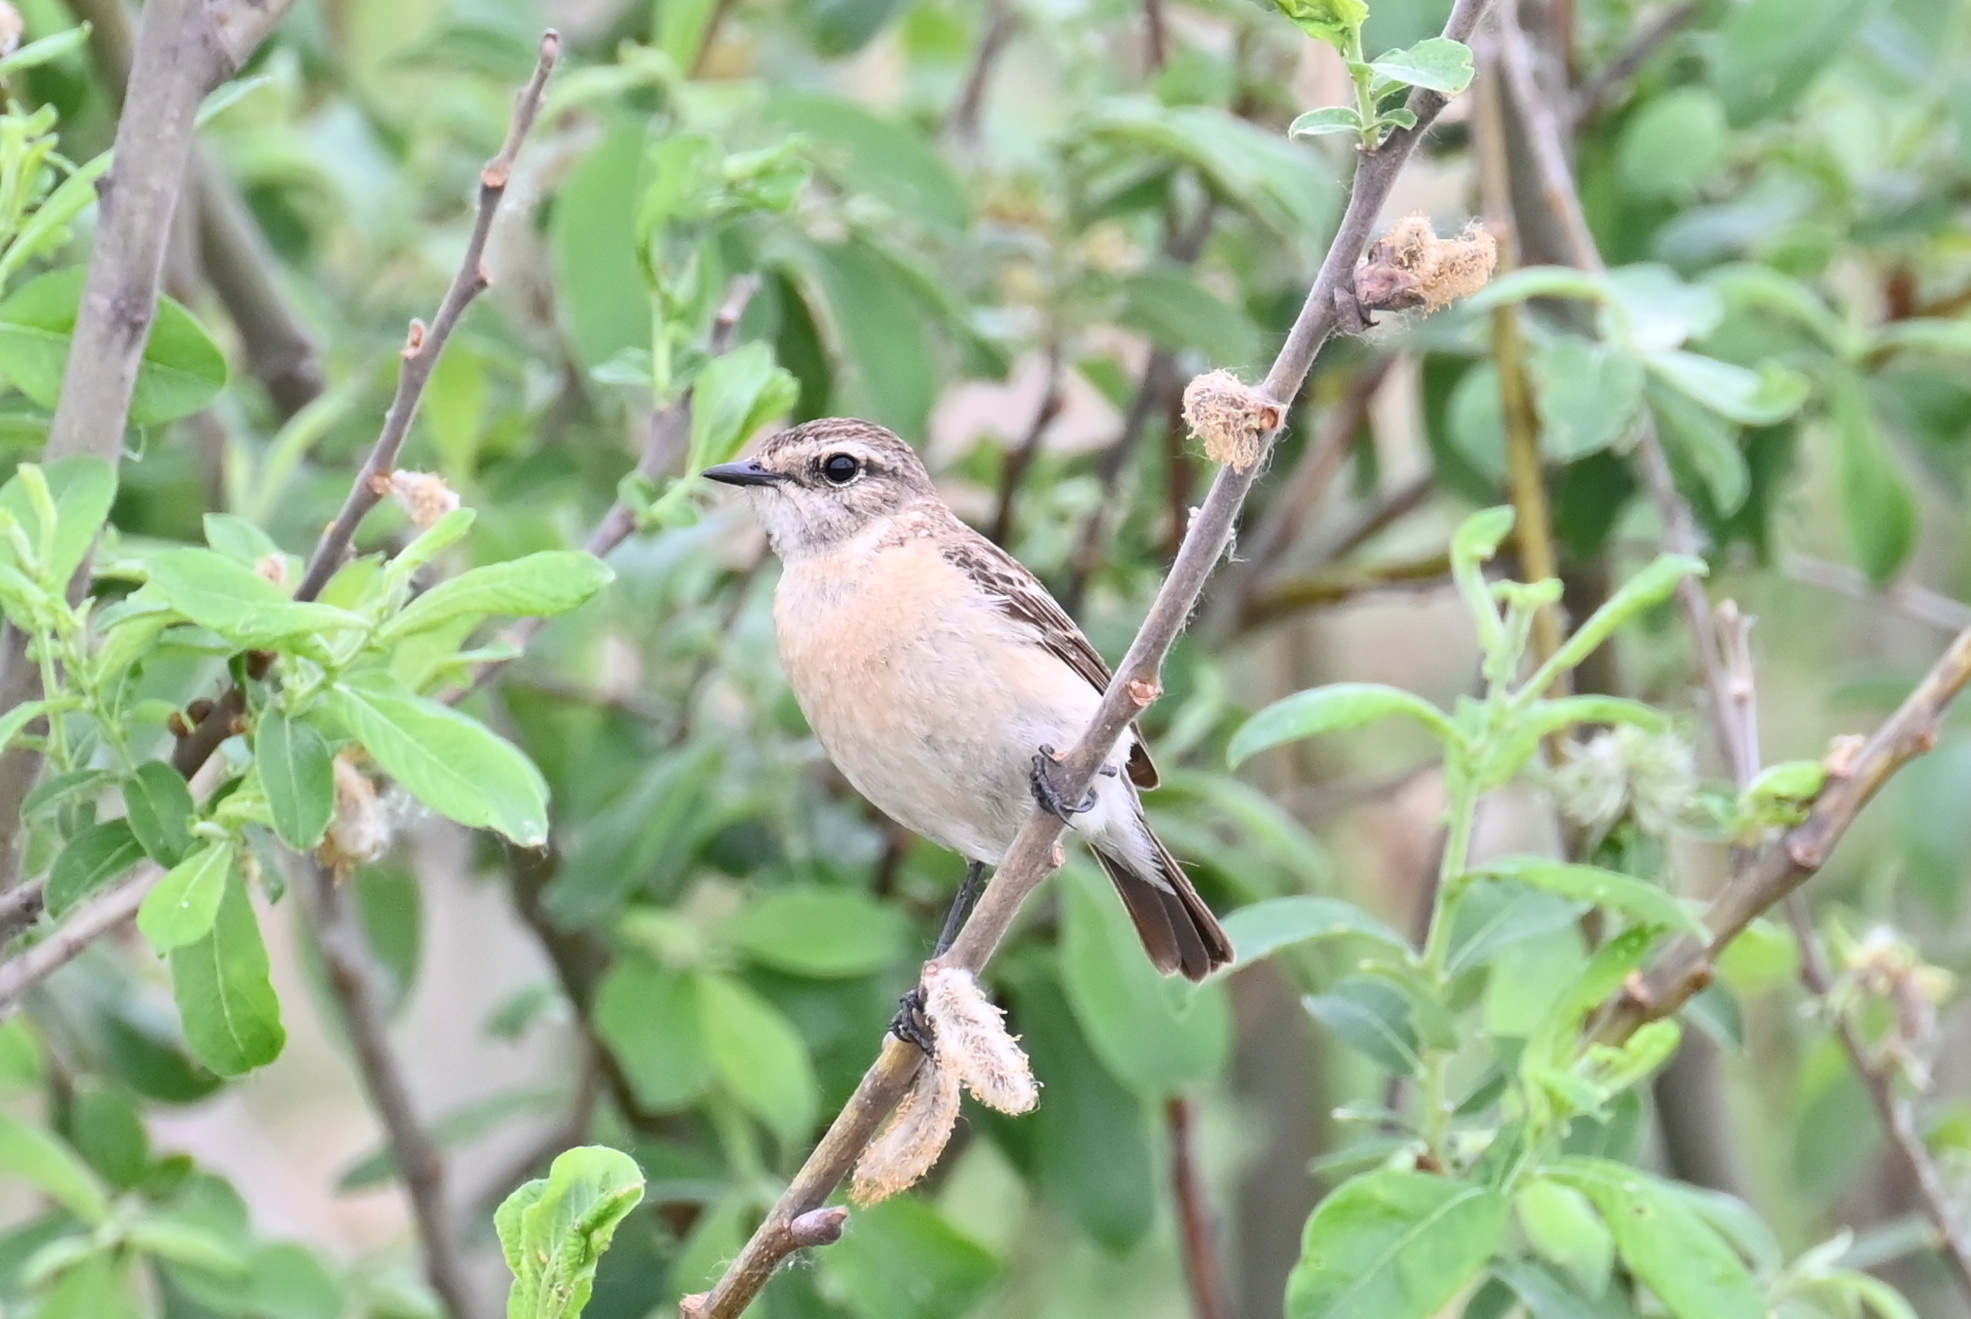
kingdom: Animalia
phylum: Chordata
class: Aves
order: Passeriformes
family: Muscicapidae
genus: Saxicola
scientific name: Saxicola maurus
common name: Siberian stonechat
